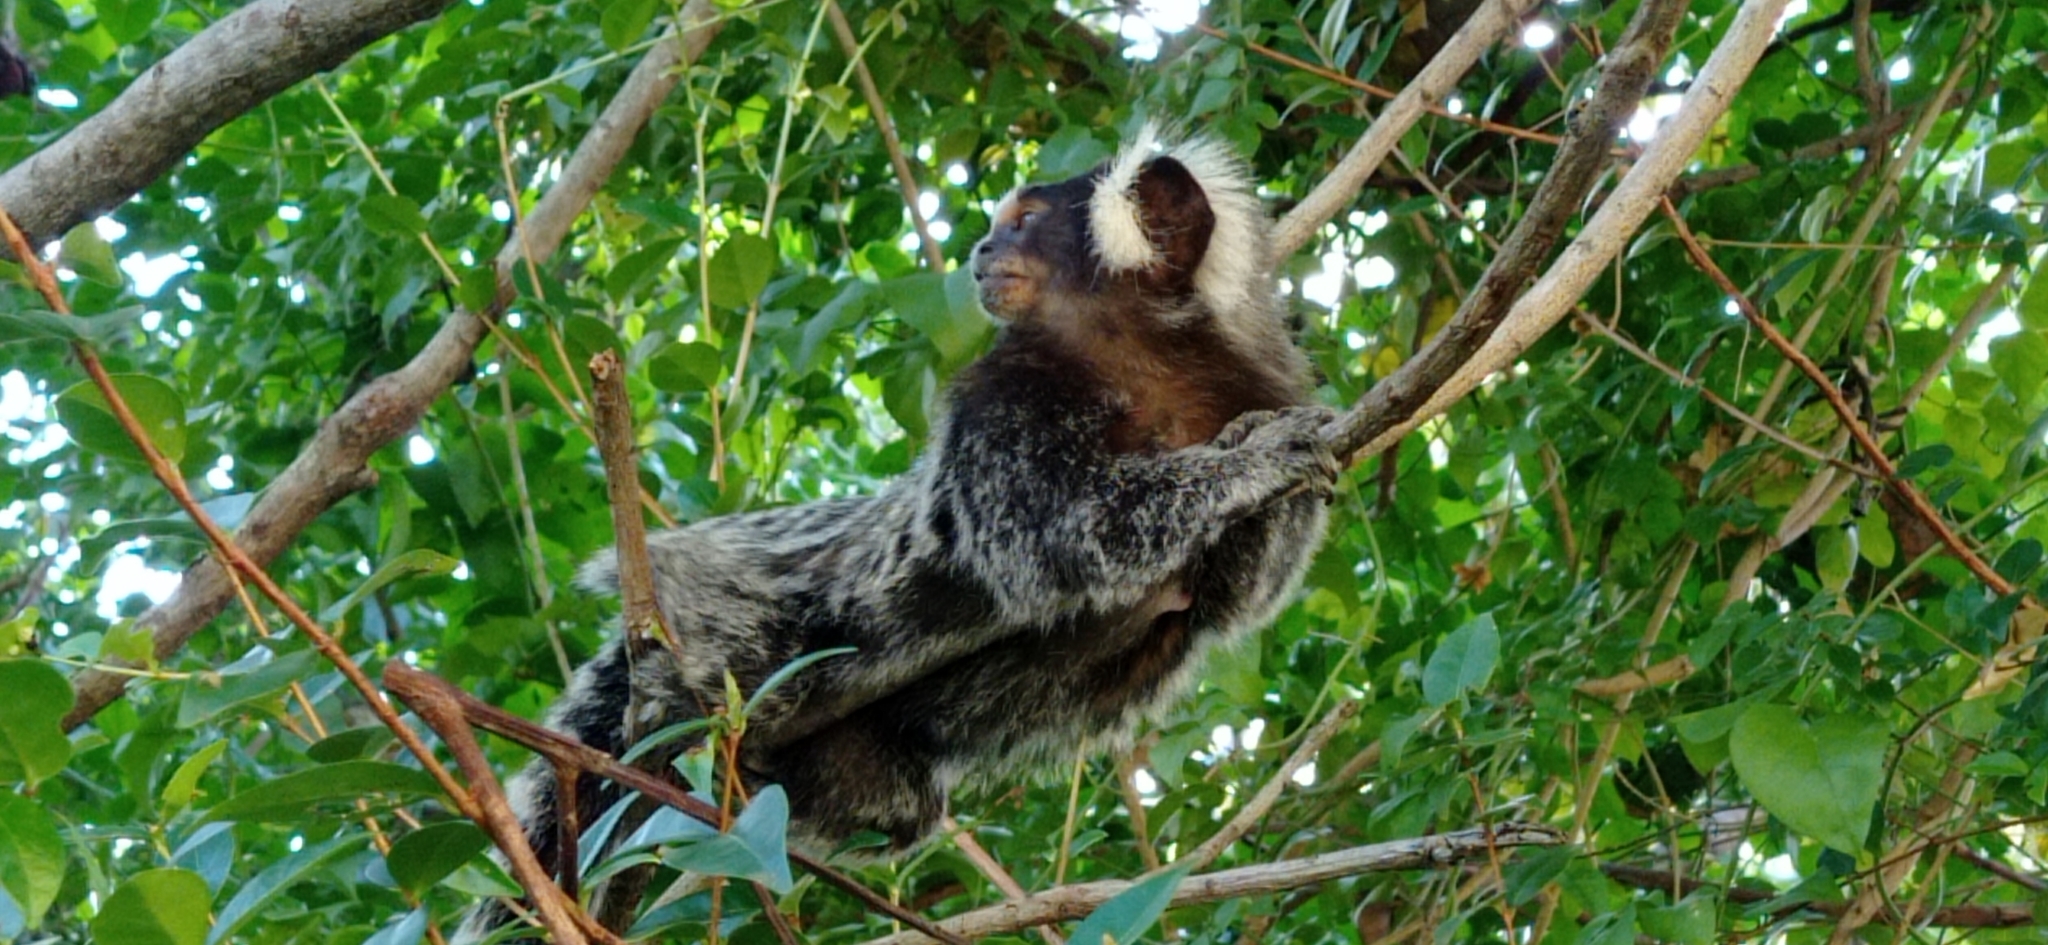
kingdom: Animalia
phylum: Chordata
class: Mammalia
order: Primates
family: Callitrichidae
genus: Callithrix
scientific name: Callithrix jacchus
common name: Common marmoset
